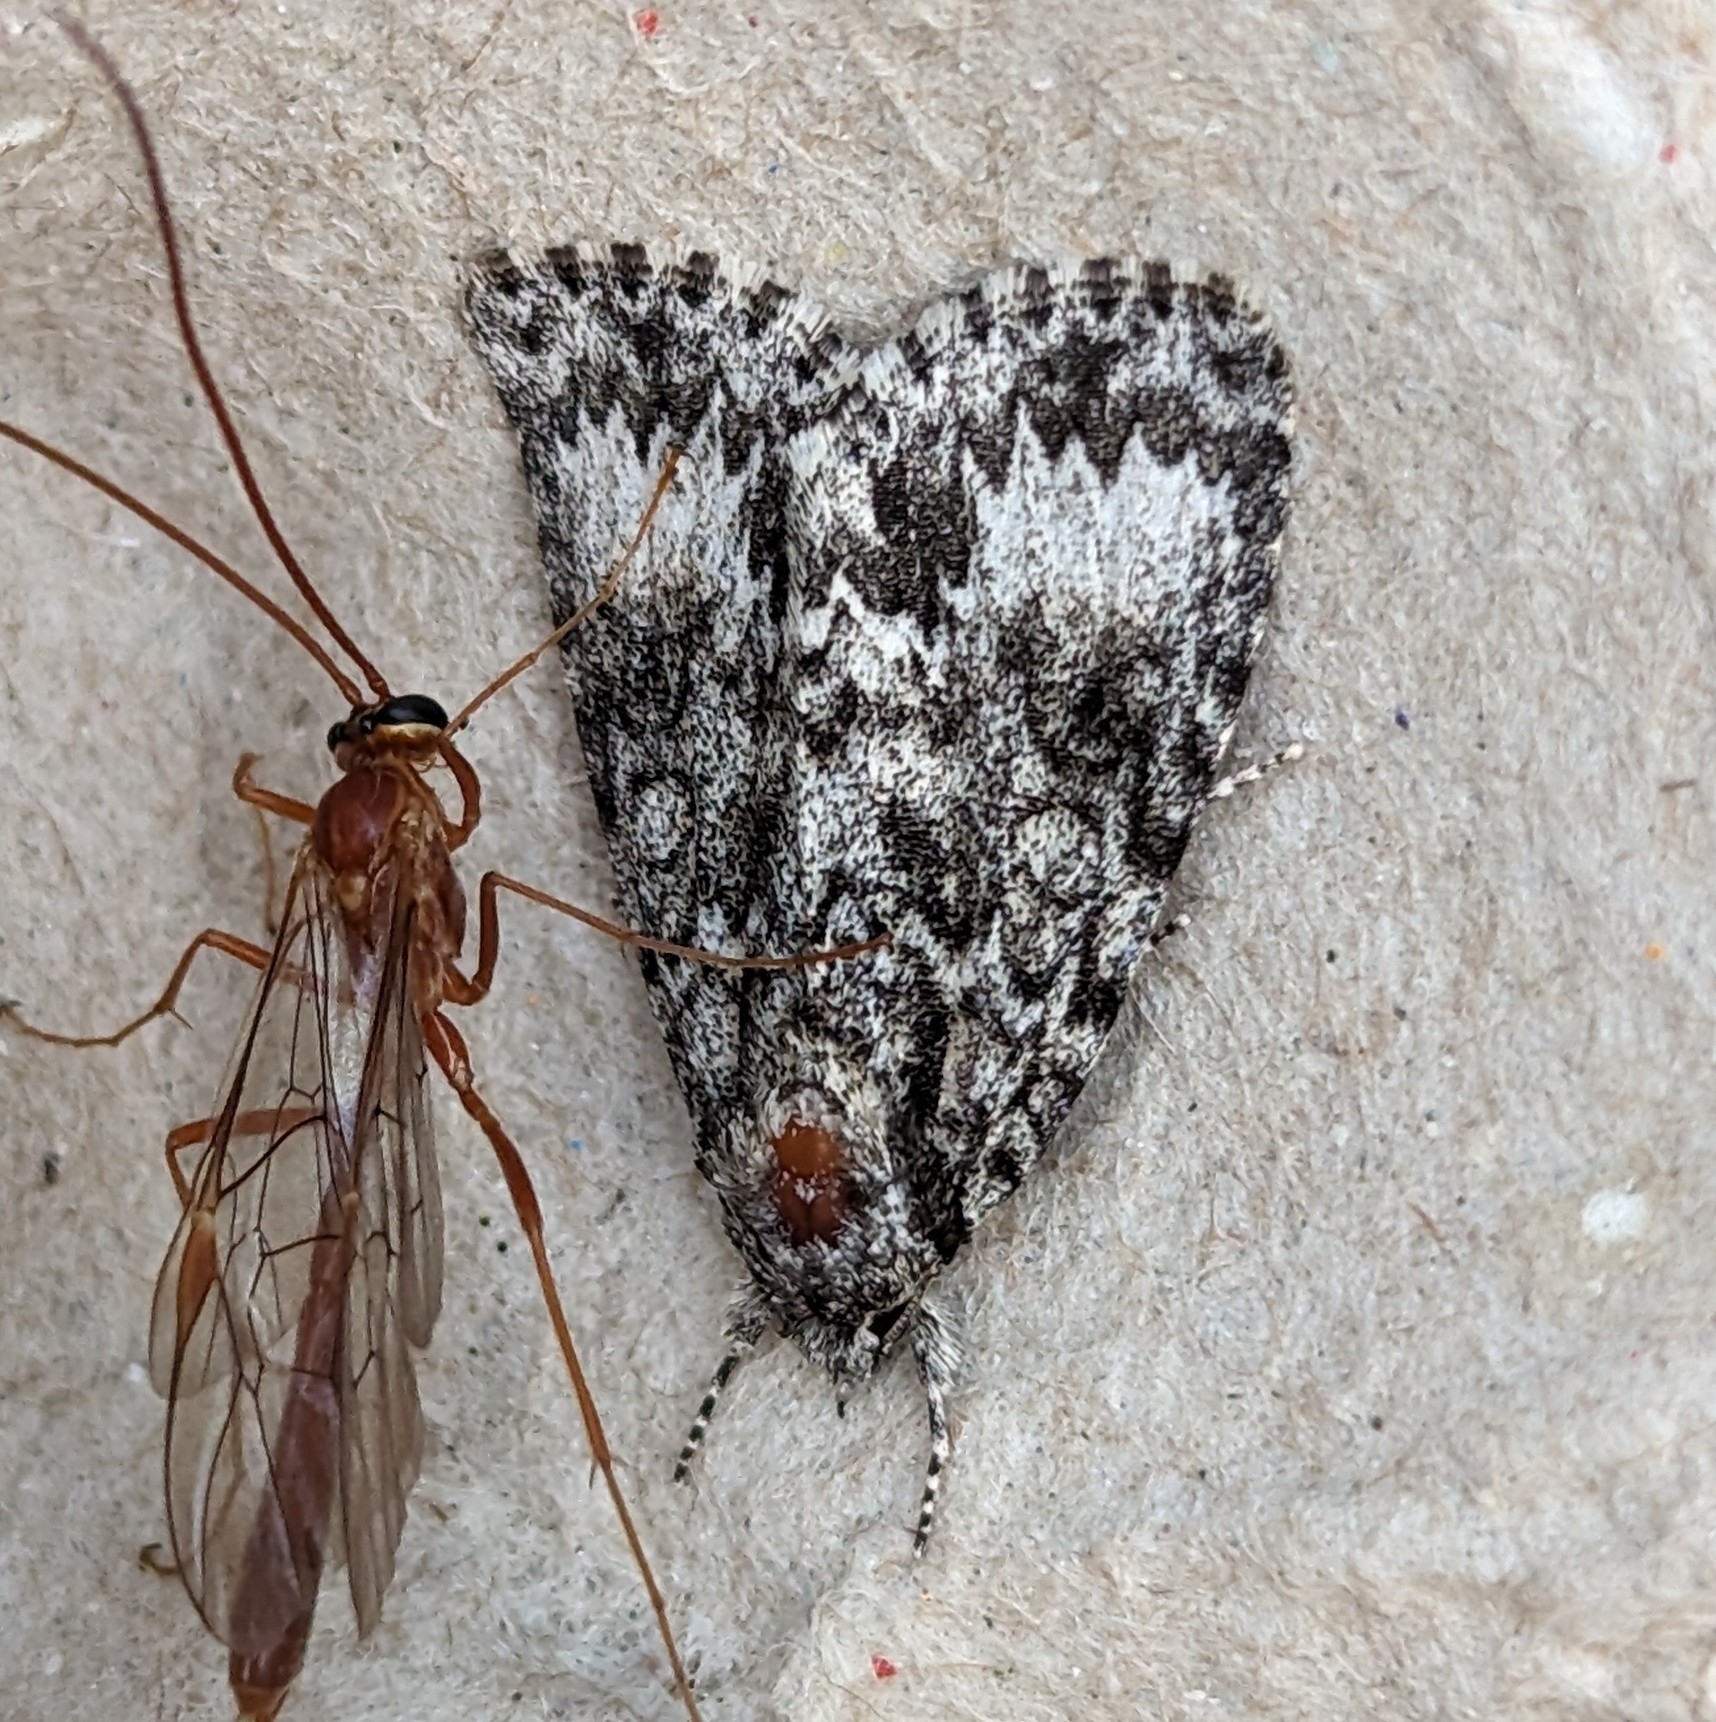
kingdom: Animalia
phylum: Arthropoda
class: Insecta
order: Lepidoptera
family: Noctuidae
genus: Acronicta
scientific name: Acronicta fragilis
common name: Fragile dagger
